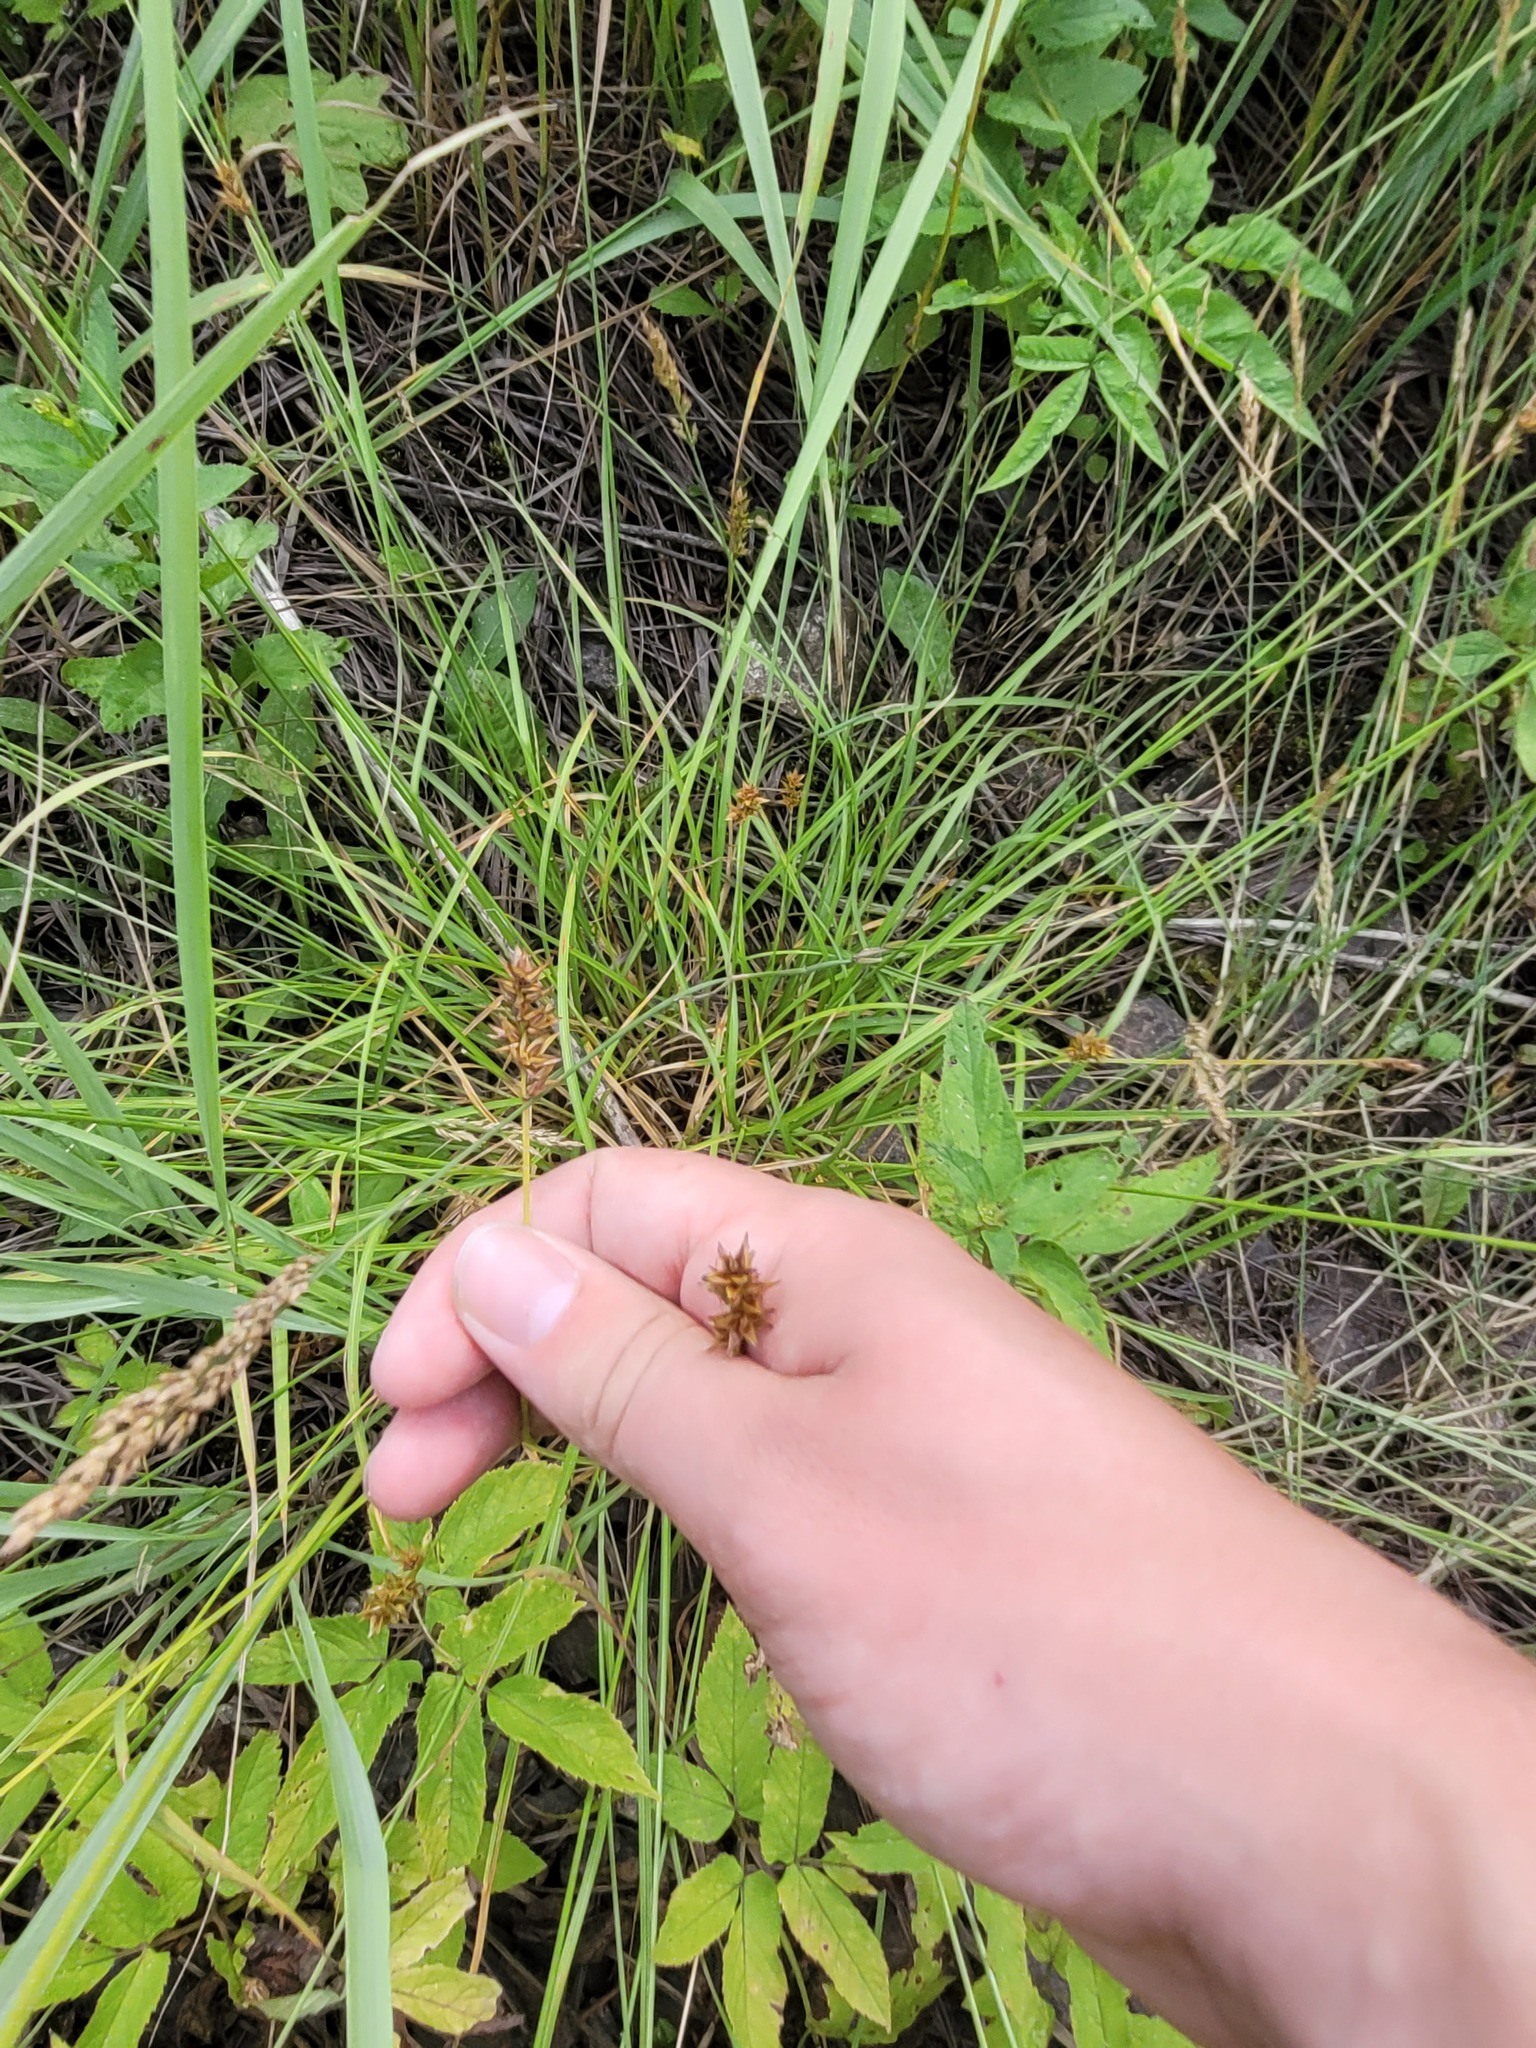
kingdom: Plantae
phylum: Tracheophyta
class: Liliopsida
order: Poales
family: Cyperaceae
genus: Carex
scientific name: Carex spicata
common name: Spiked sedge
